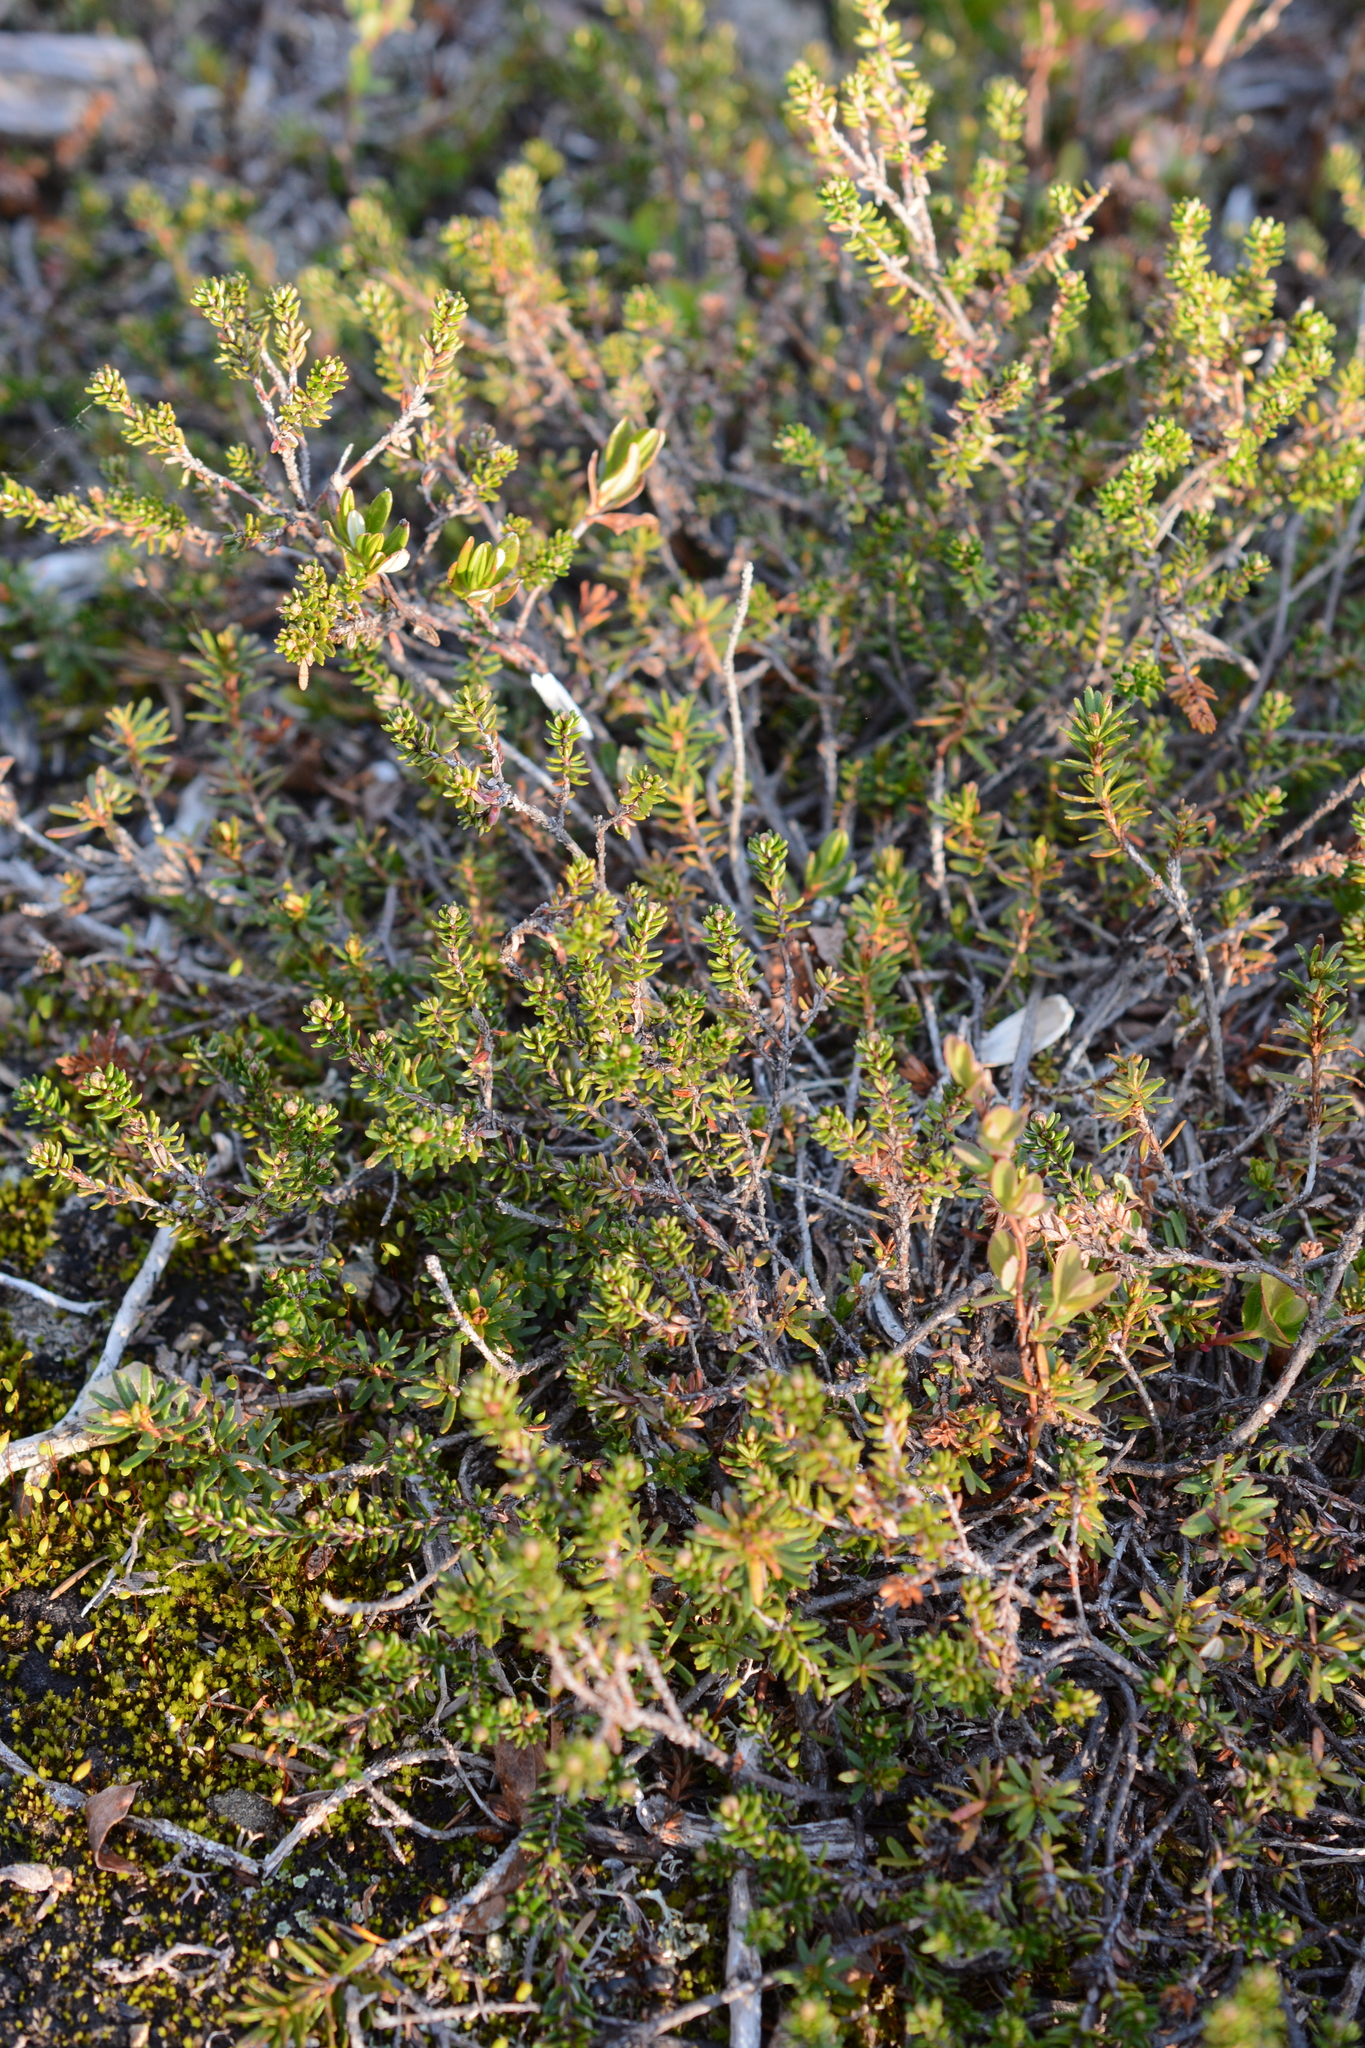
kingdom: Plantae
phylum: Tracheophyta
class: Magnoliopsida
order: Ericales
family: Ericaceae
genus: Empetrum
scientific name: Empetrum nigrum
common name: Black crowberry
